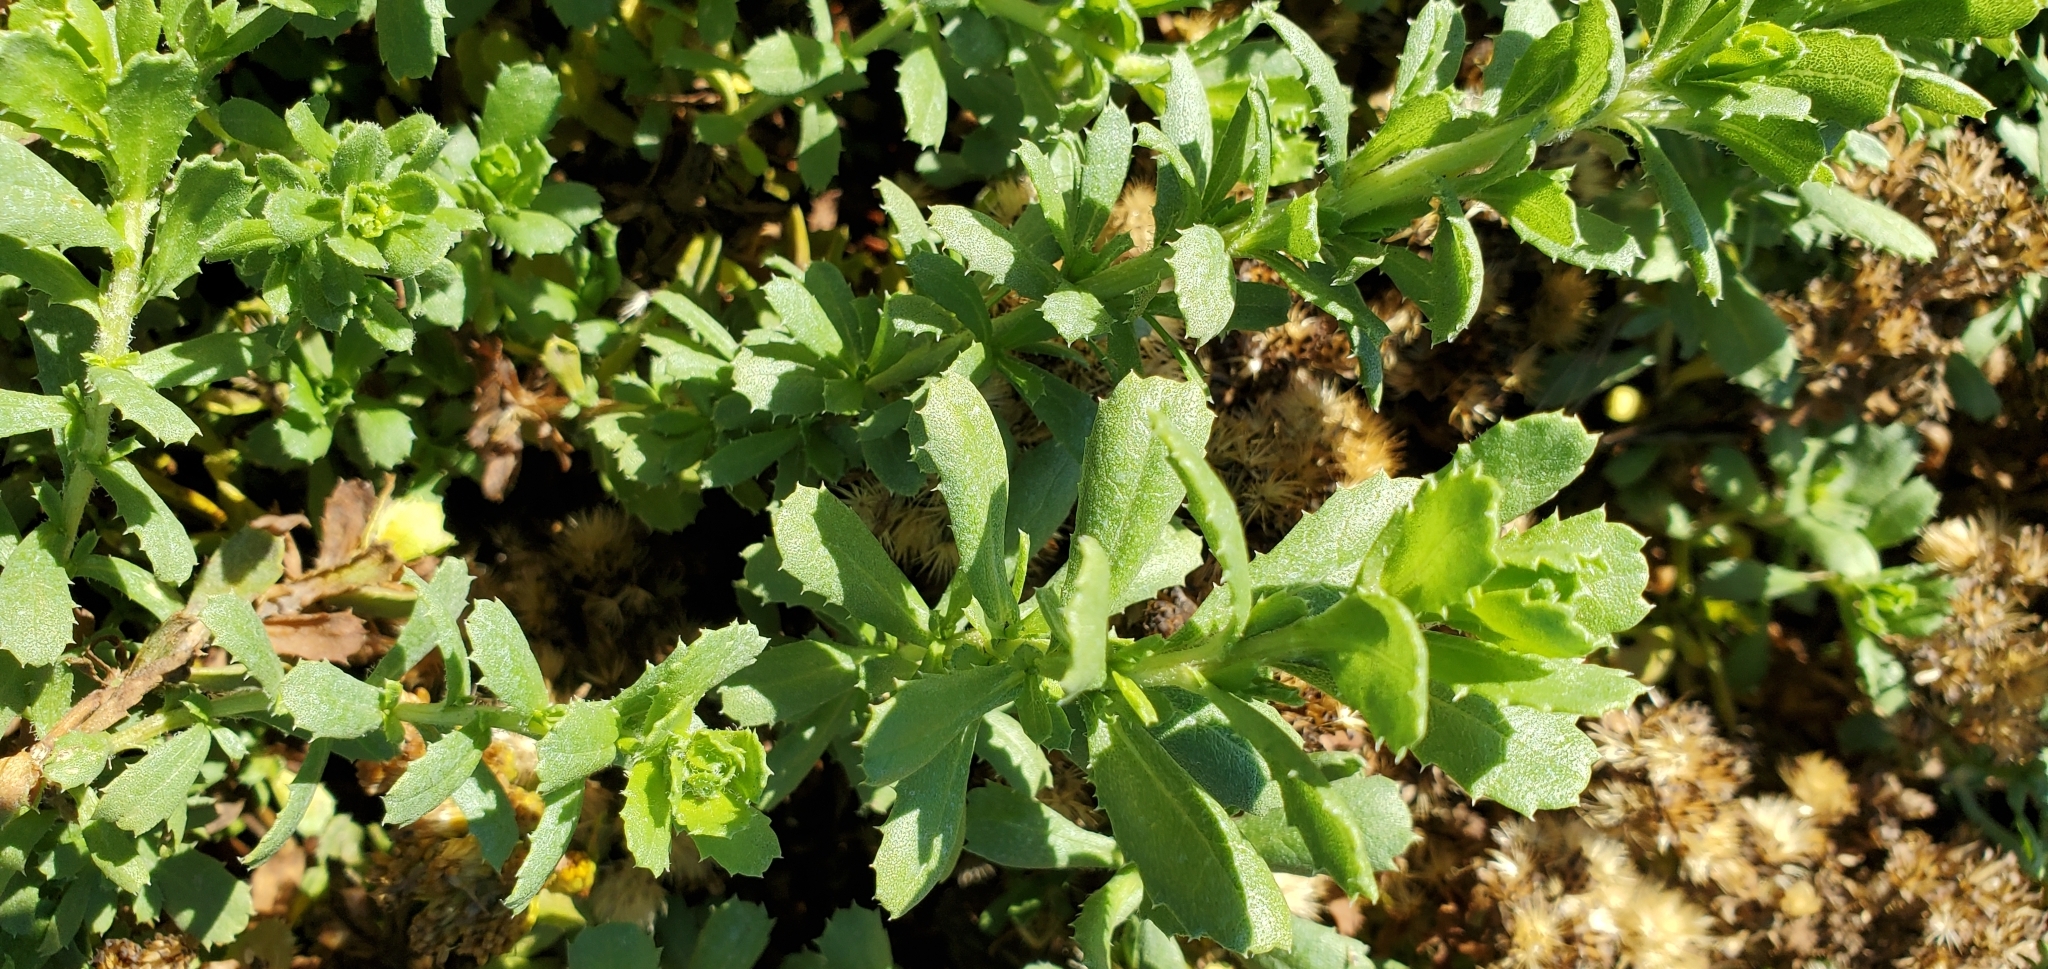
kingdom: Plantae
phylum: Tracheophyta
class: Magnoliopsida
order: Asterales
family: Asteraceae
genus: Isocoma
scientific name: Isocoma menziesii
